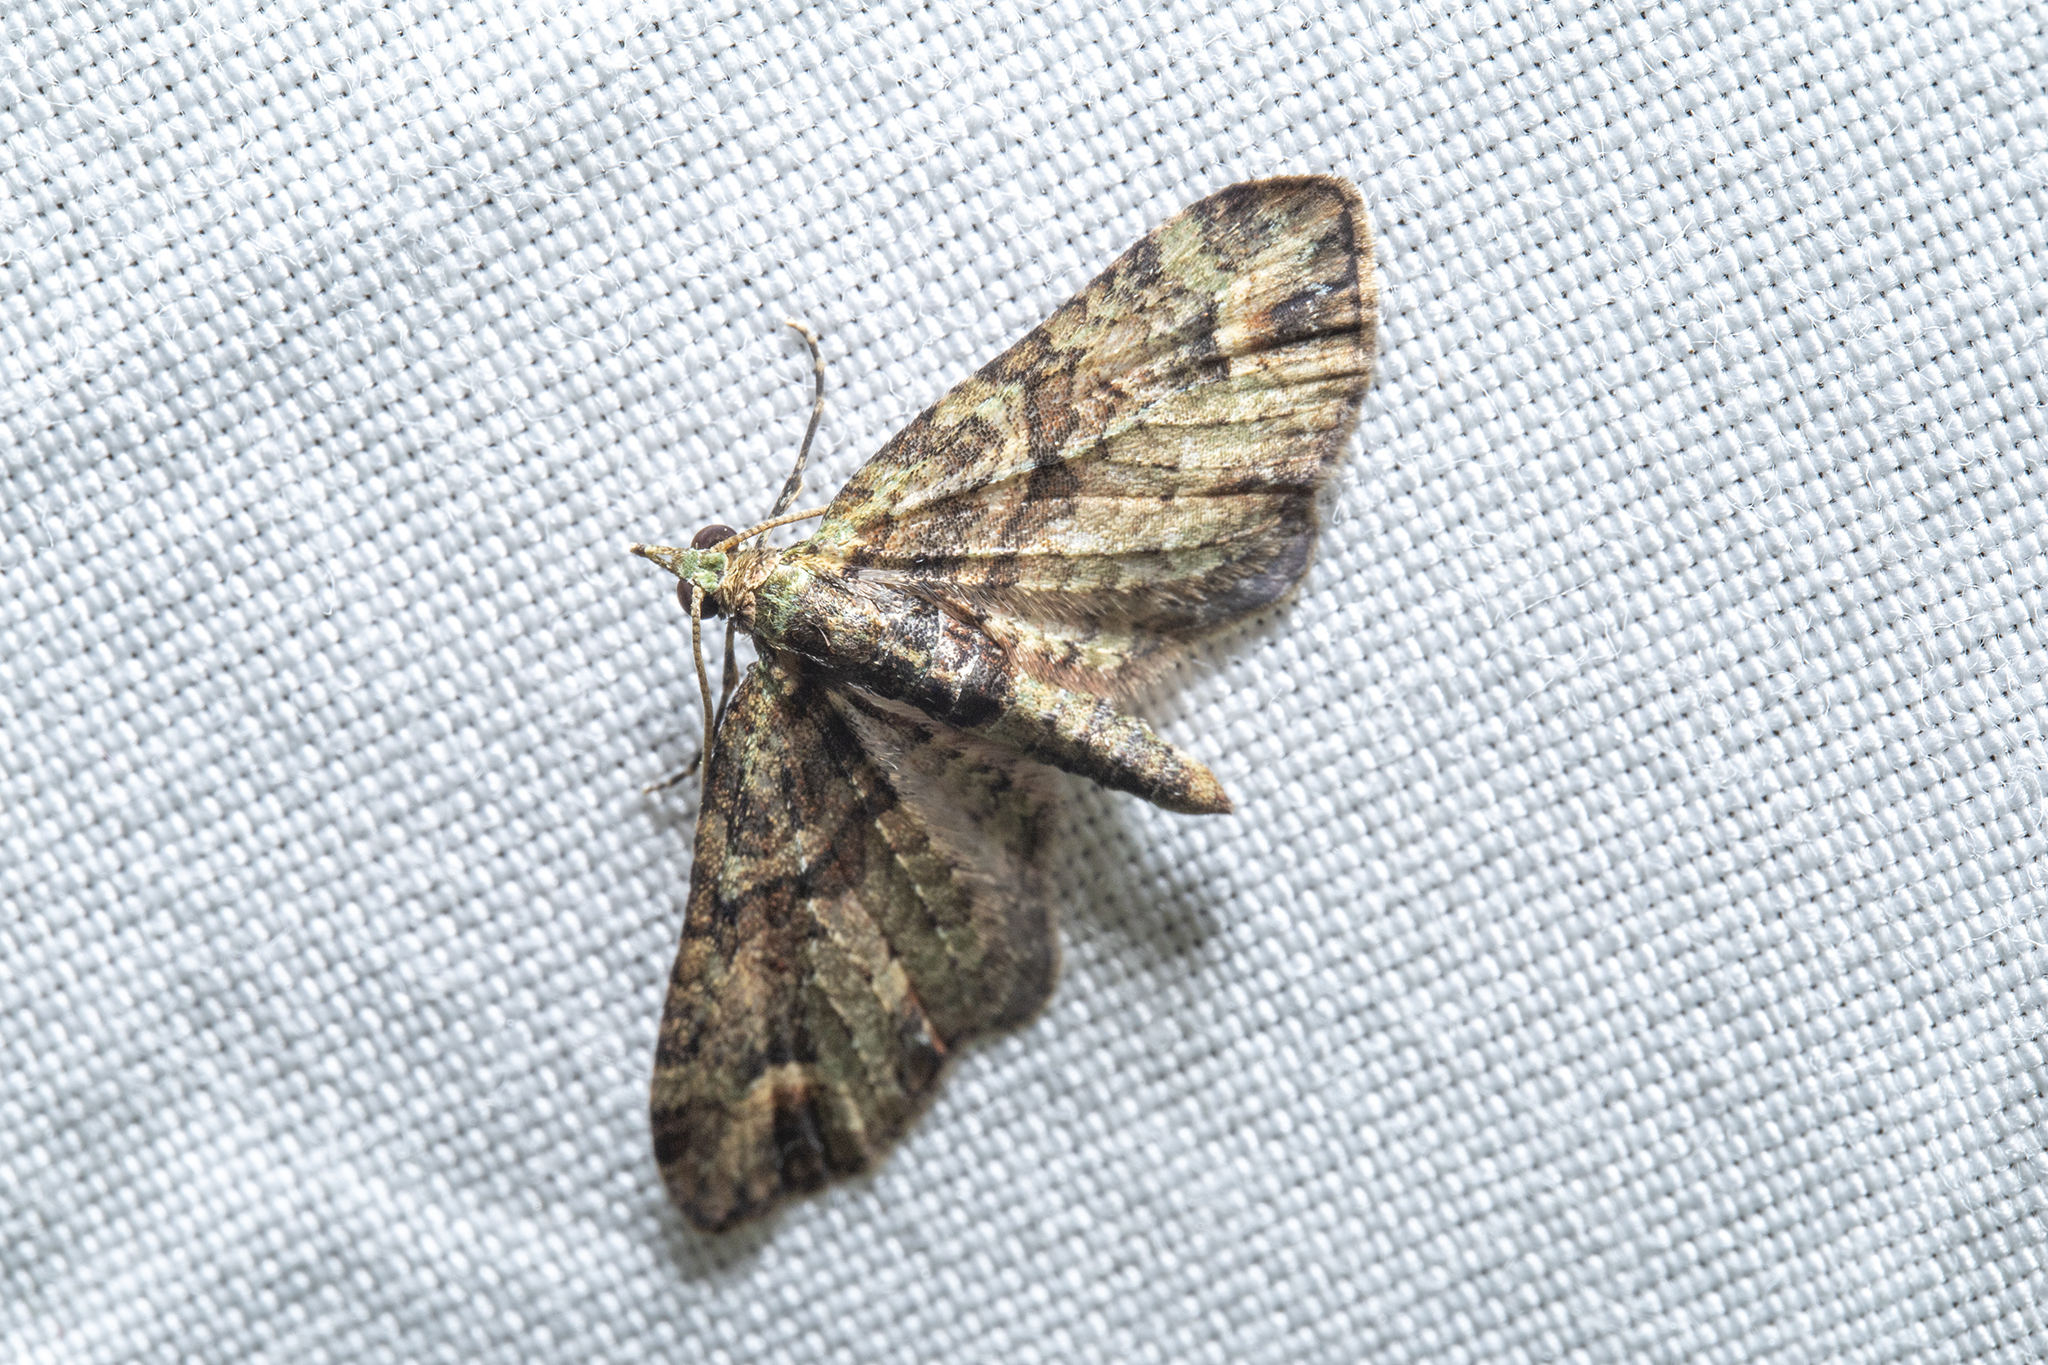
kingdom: Animalia
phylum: Arthropoda
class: Insecta
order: Lepidoptera
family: Geometridae
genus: Idaea
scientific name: Idaea mutanda
